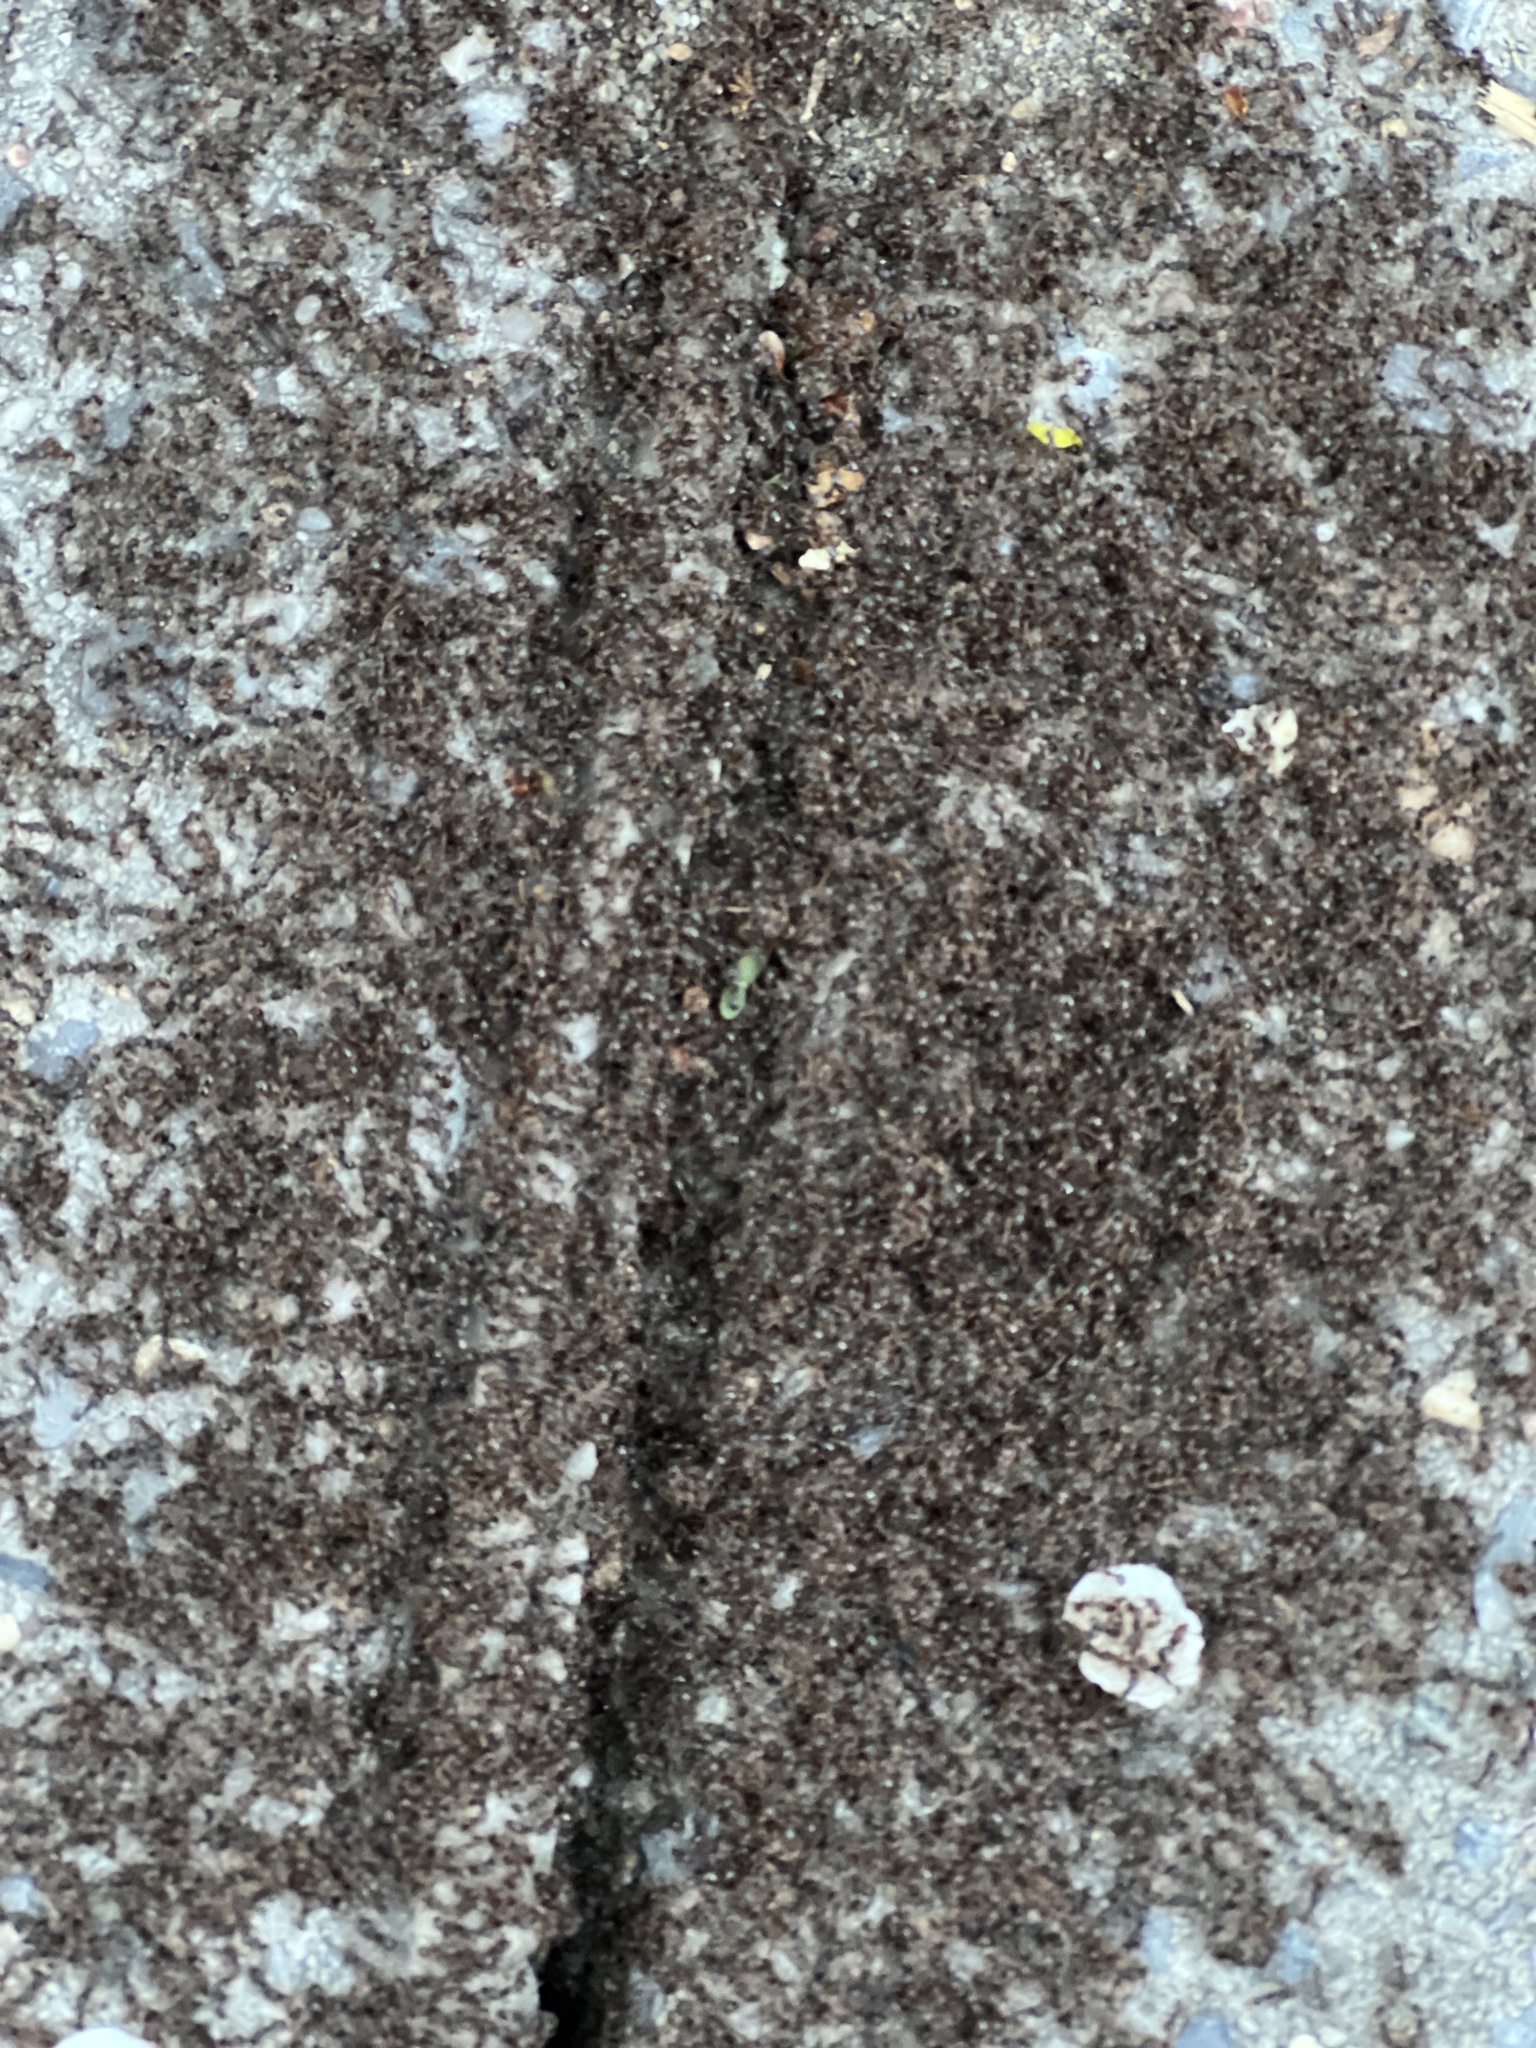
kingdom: Animalia
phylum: Arthropoda
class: Insecta
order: Hymenoptera
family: Formicidae
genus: Tetramorium
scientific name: Tetramorium immigrans
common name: Pavement ant
